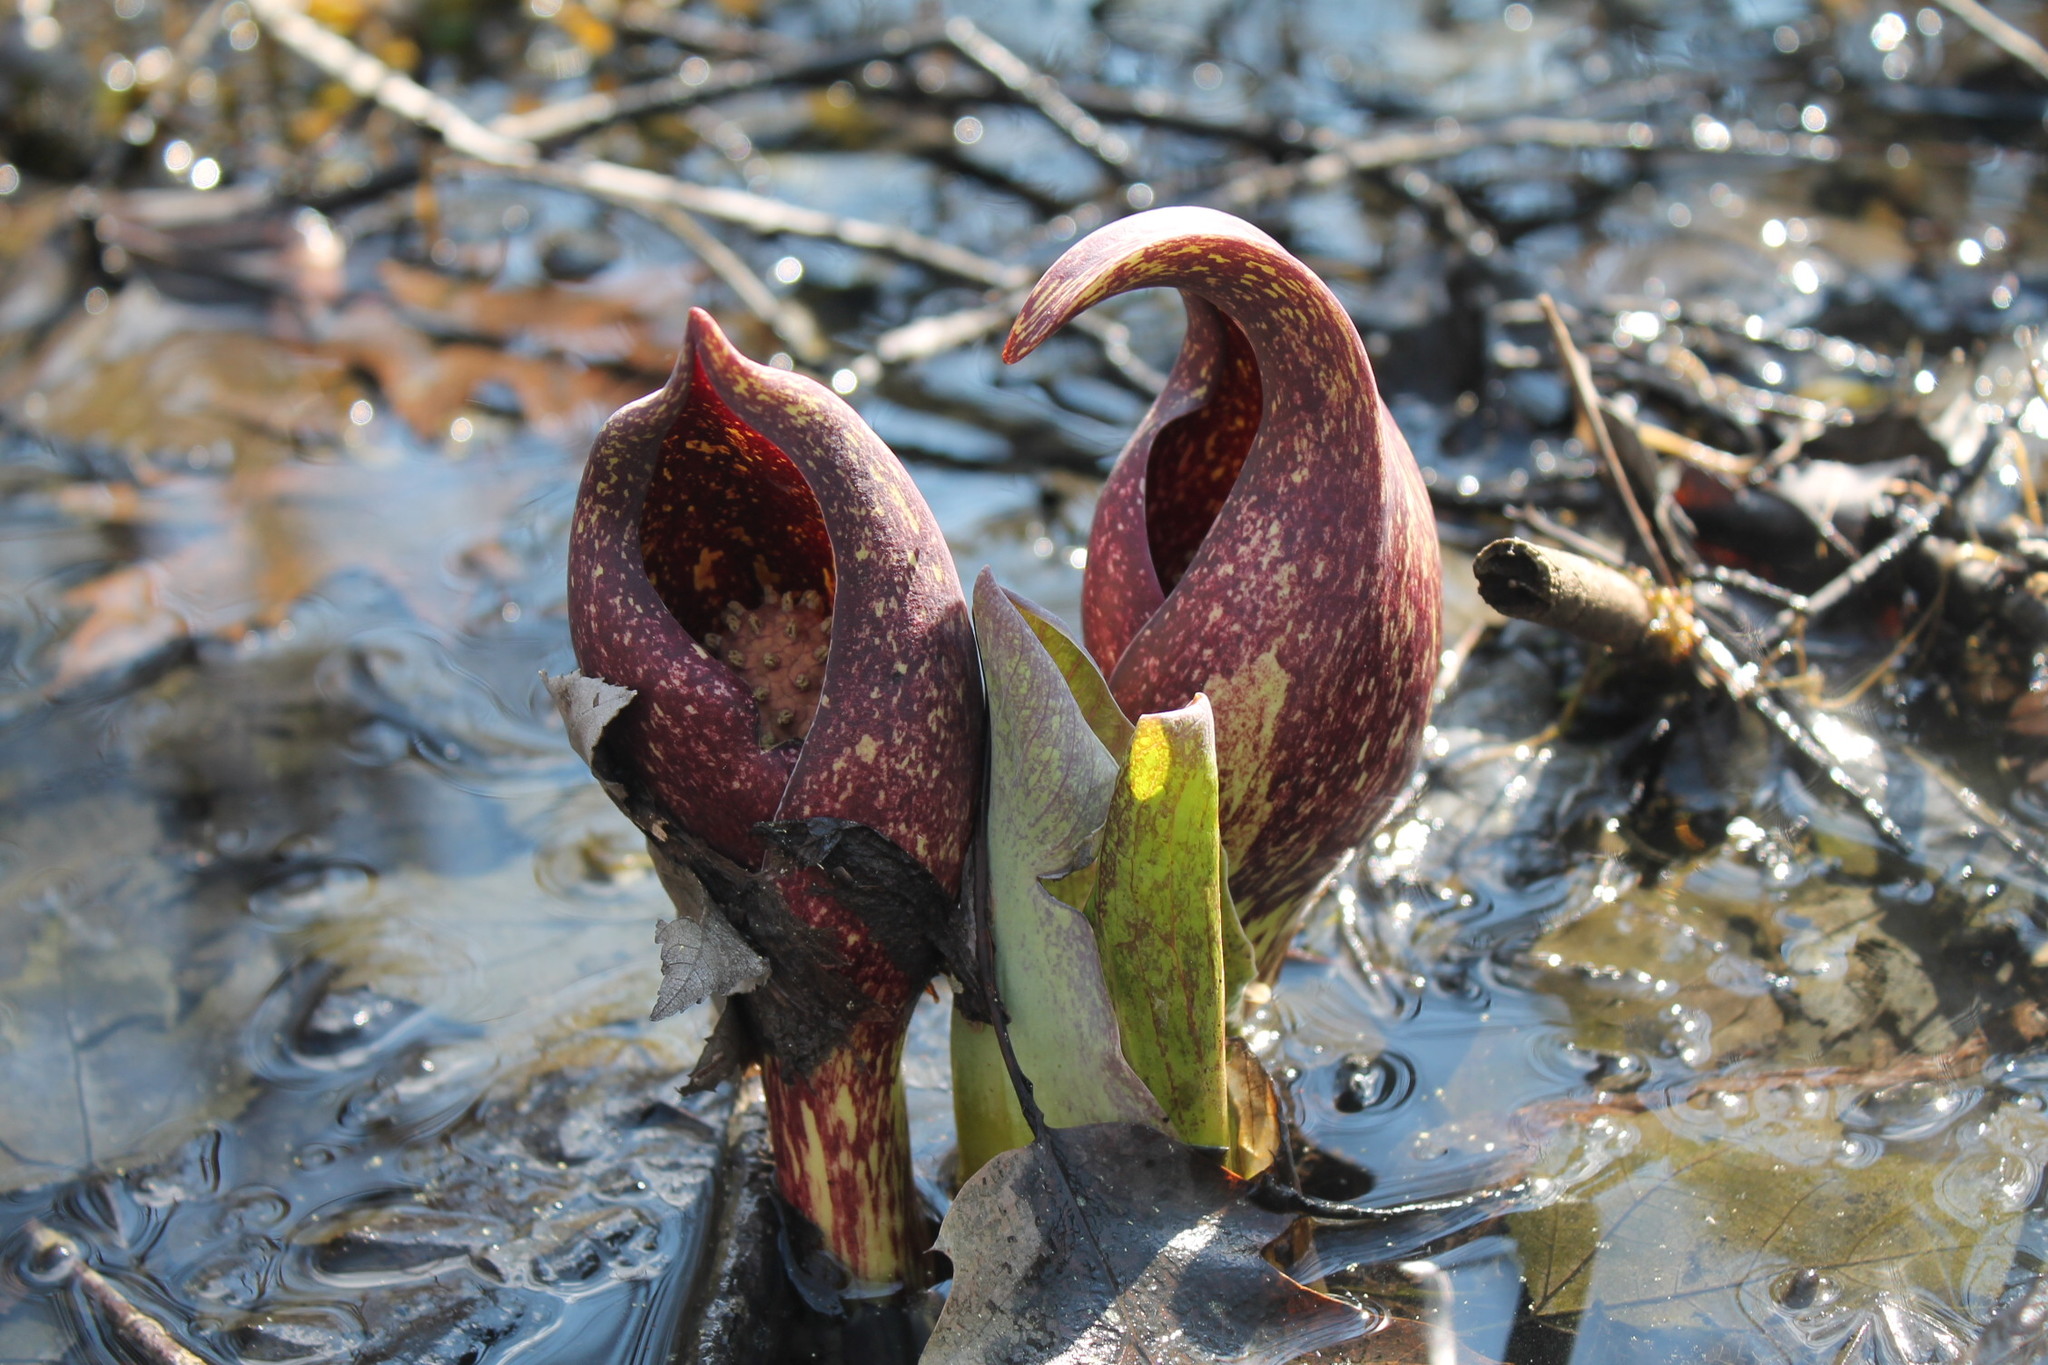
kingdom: Plantae
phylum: Tracheophyta
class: Liliopsida
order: Alismatales
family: Araceae
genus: Symplocarpus
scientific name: Symplocarpus foetidus
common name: Eastern skunk cabbage
